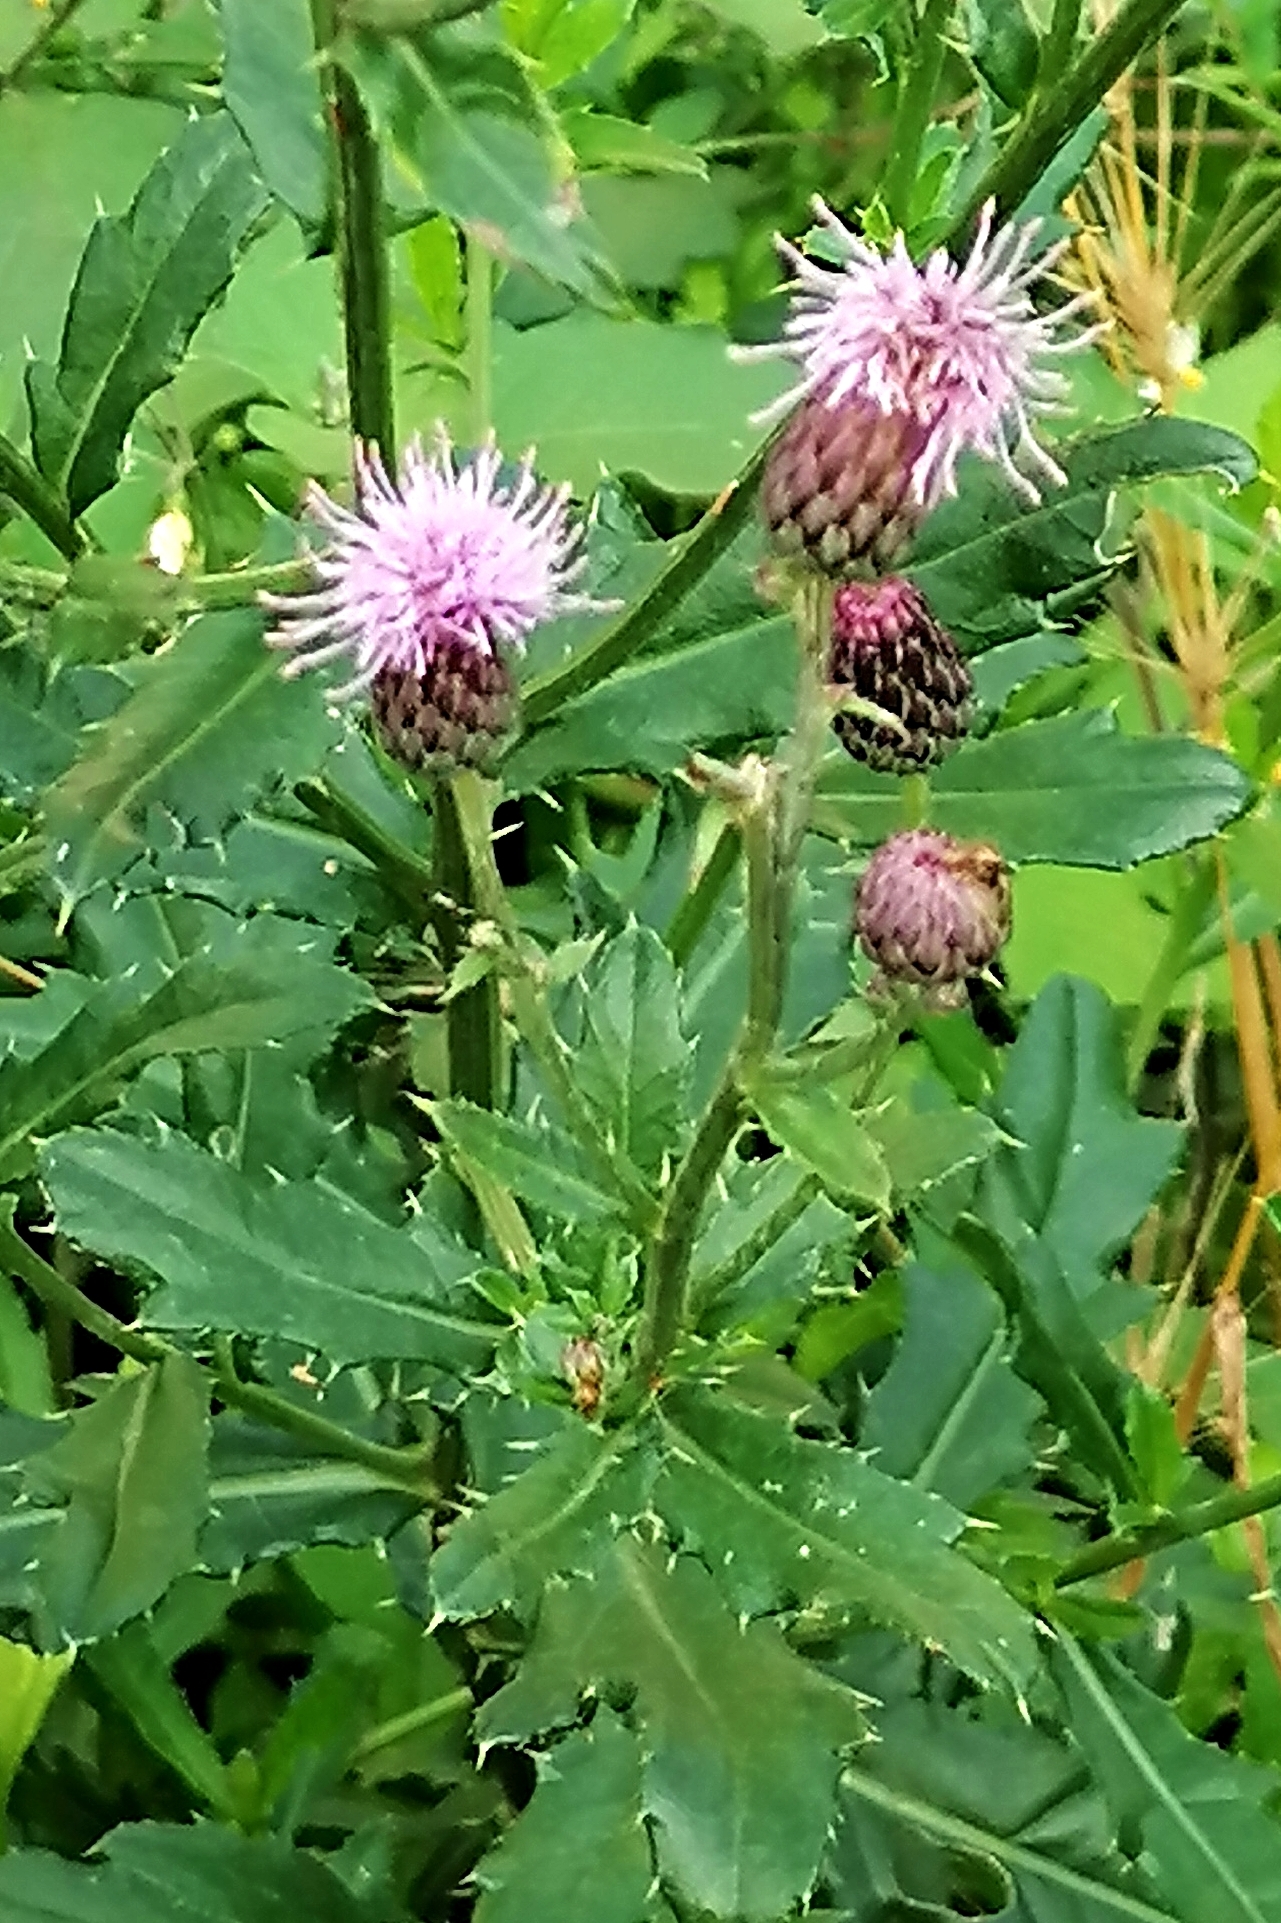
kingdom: Plantae
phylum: Tracheophyta
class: Magnoliopsida
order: Asterales
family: Asteraceae
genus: Cirsium
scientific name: Cirsium arvense
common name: Creeping thistle
